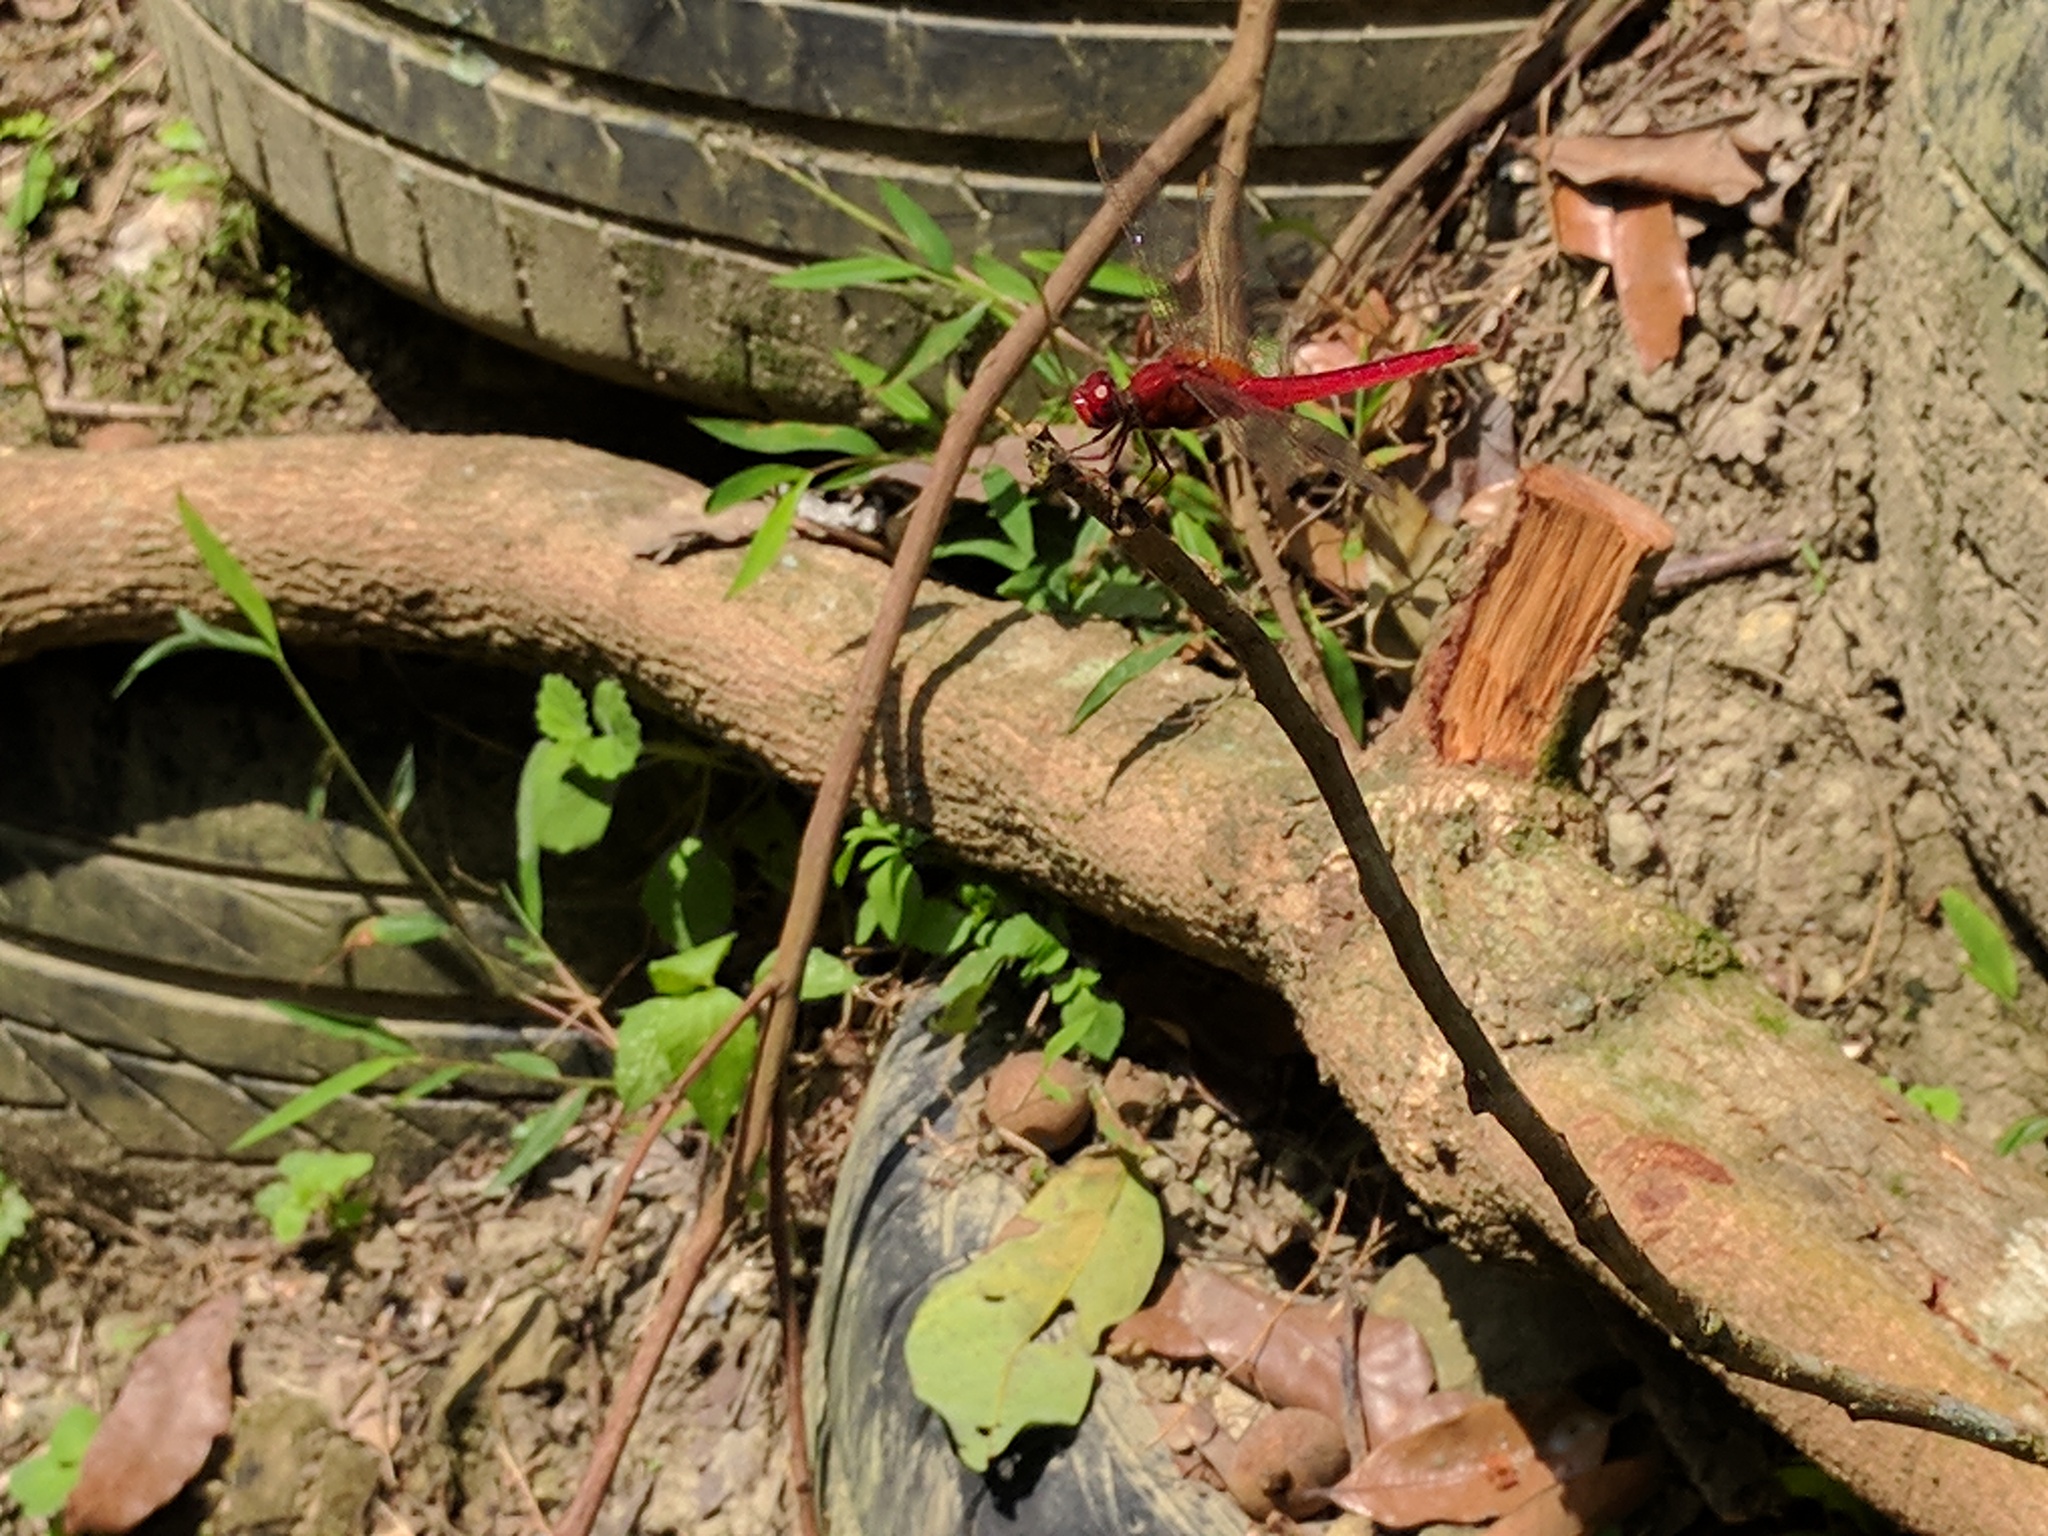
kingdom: Animalia
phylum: Arthropoda
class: Insecta
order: Odonata
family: Libellulidae
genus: Crocothemis
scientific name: Crocothemis servilia
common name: Scarlet skimmer
